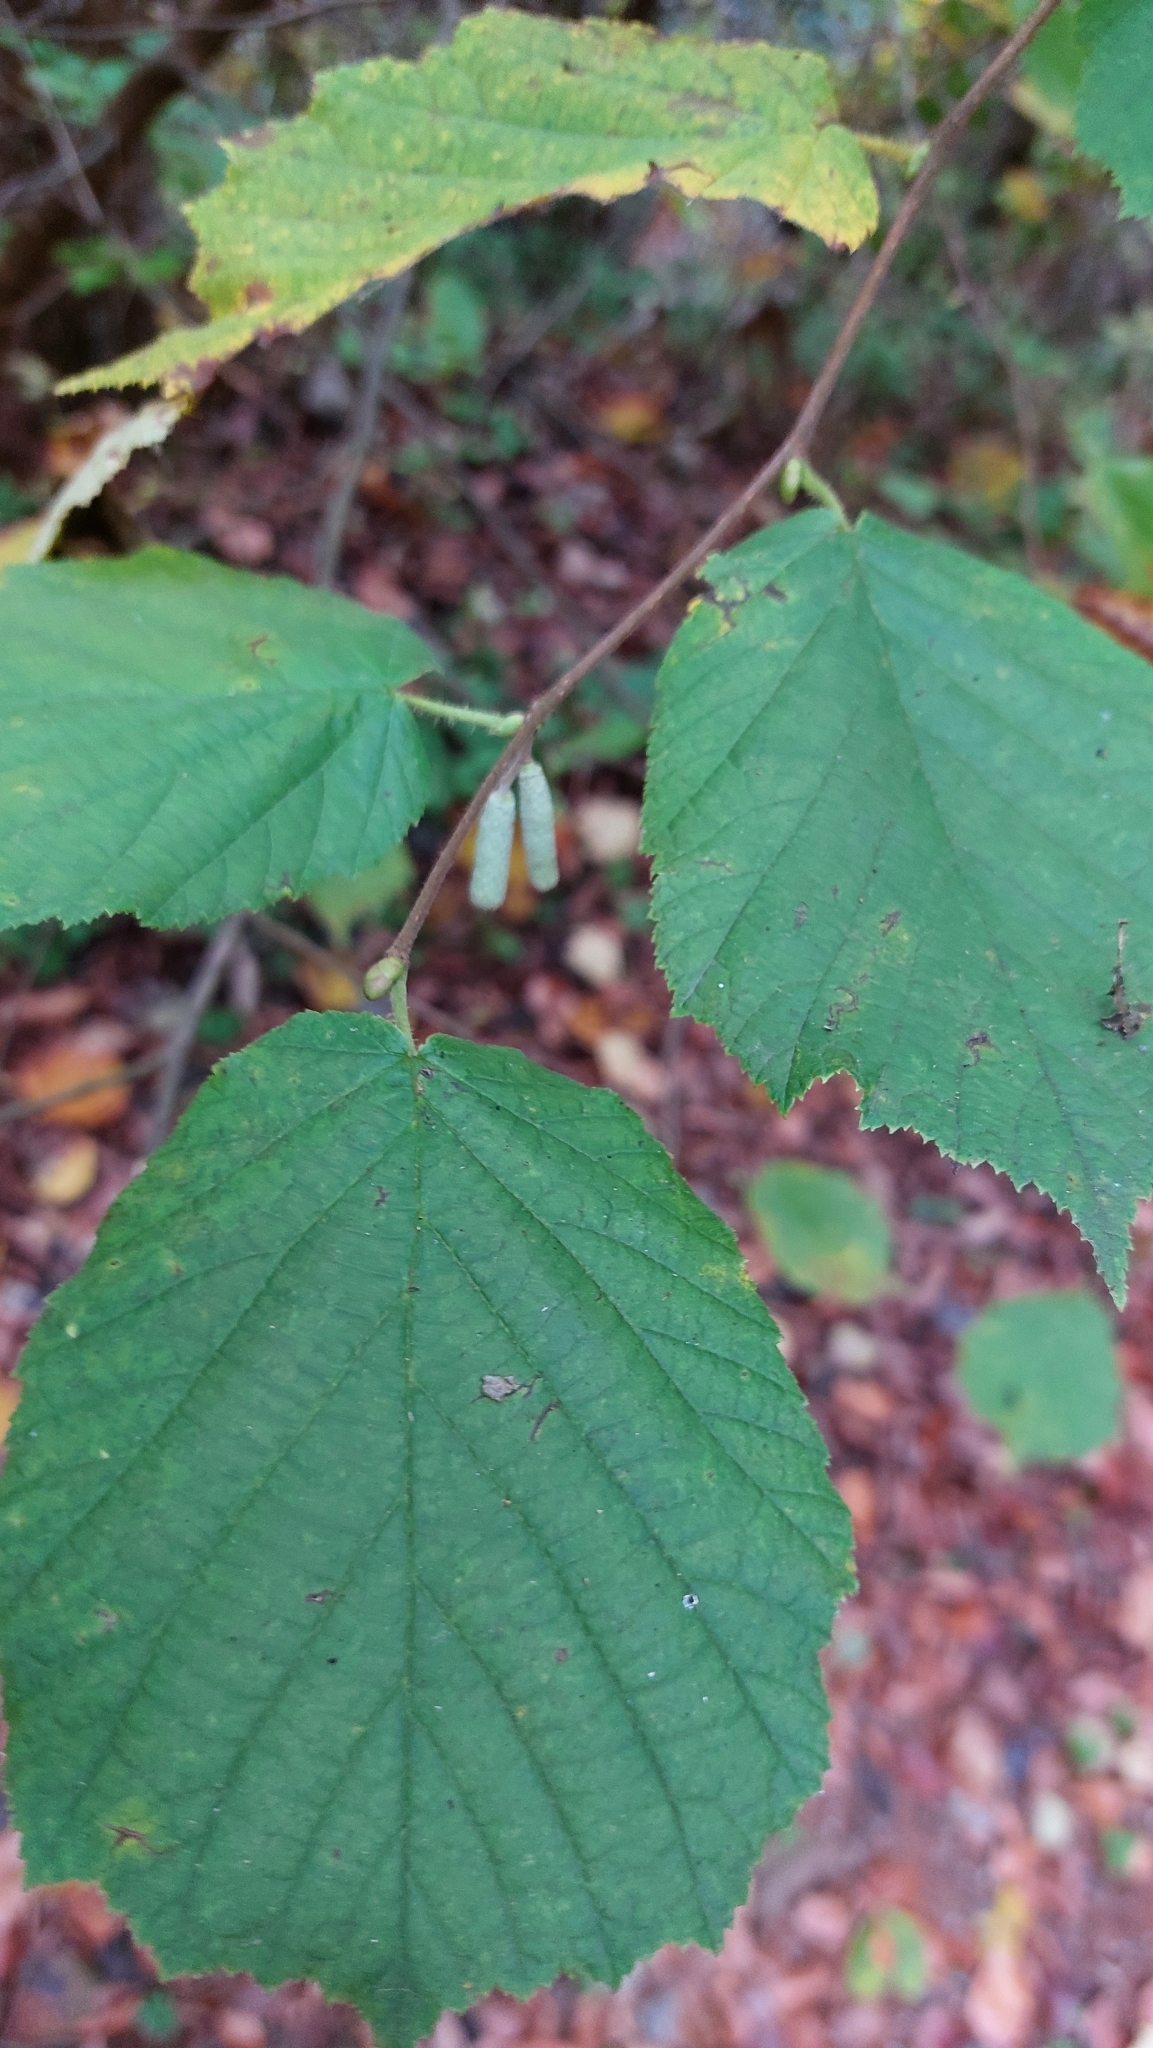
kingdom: Plantae
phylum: Tracheophyta
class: Magnoliopsida
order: Fagales
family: Betulaceae
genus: Corylus
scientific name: Corylus avellana
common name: European hazel
